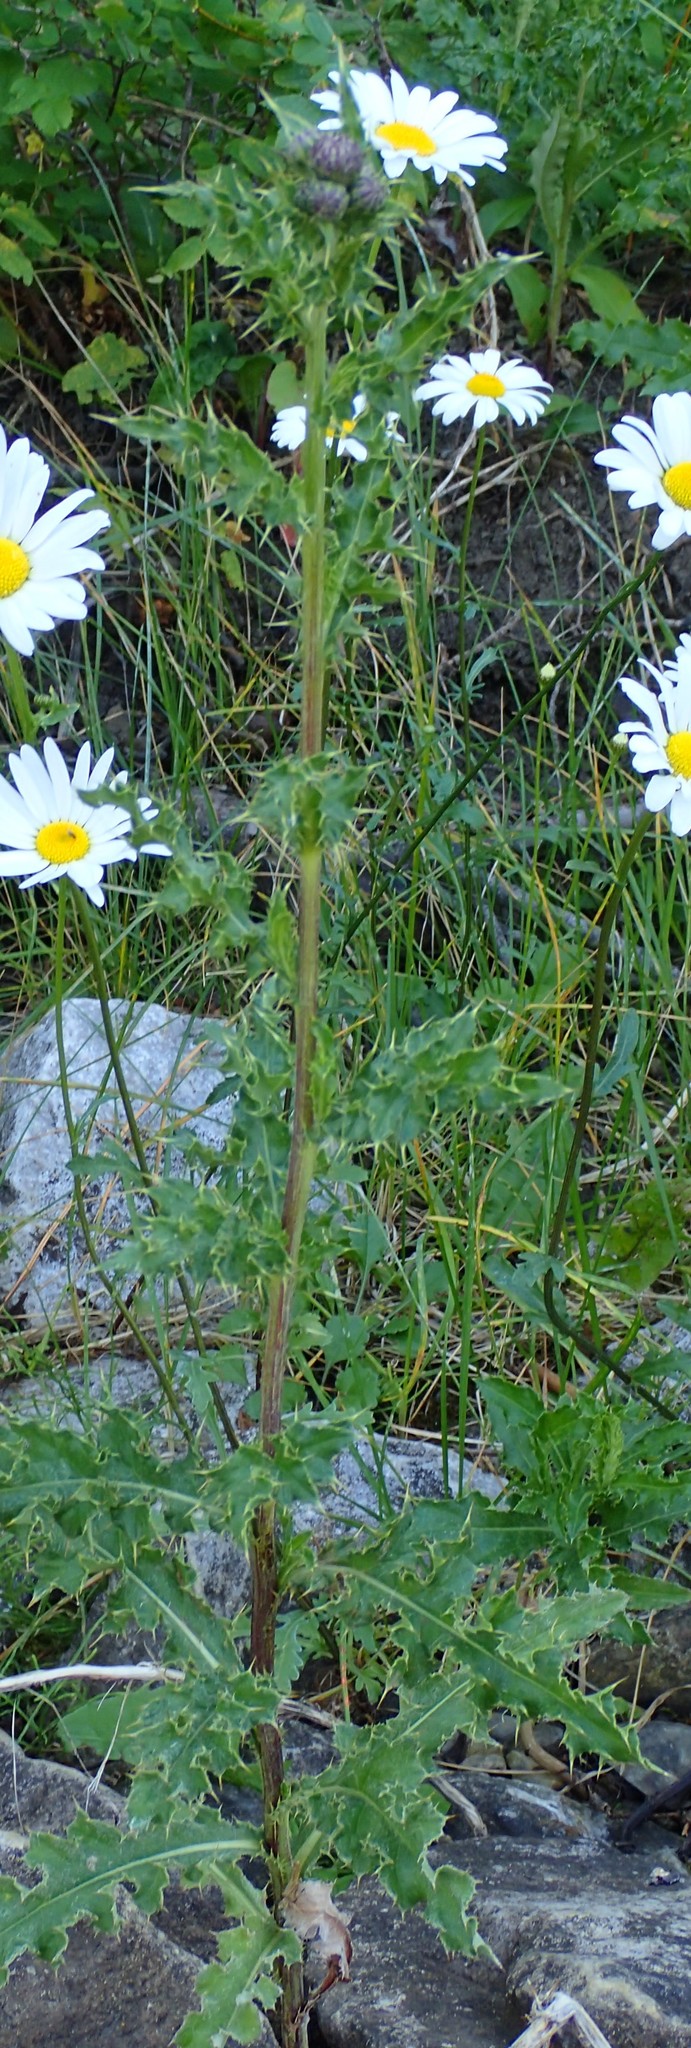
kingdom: Plantae
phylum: Tracheophyta
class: Magnoliopsida
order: Asterales
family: Asteraceae
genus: Cirsium
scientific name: Cirsium arvense
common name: Creeping thistle
